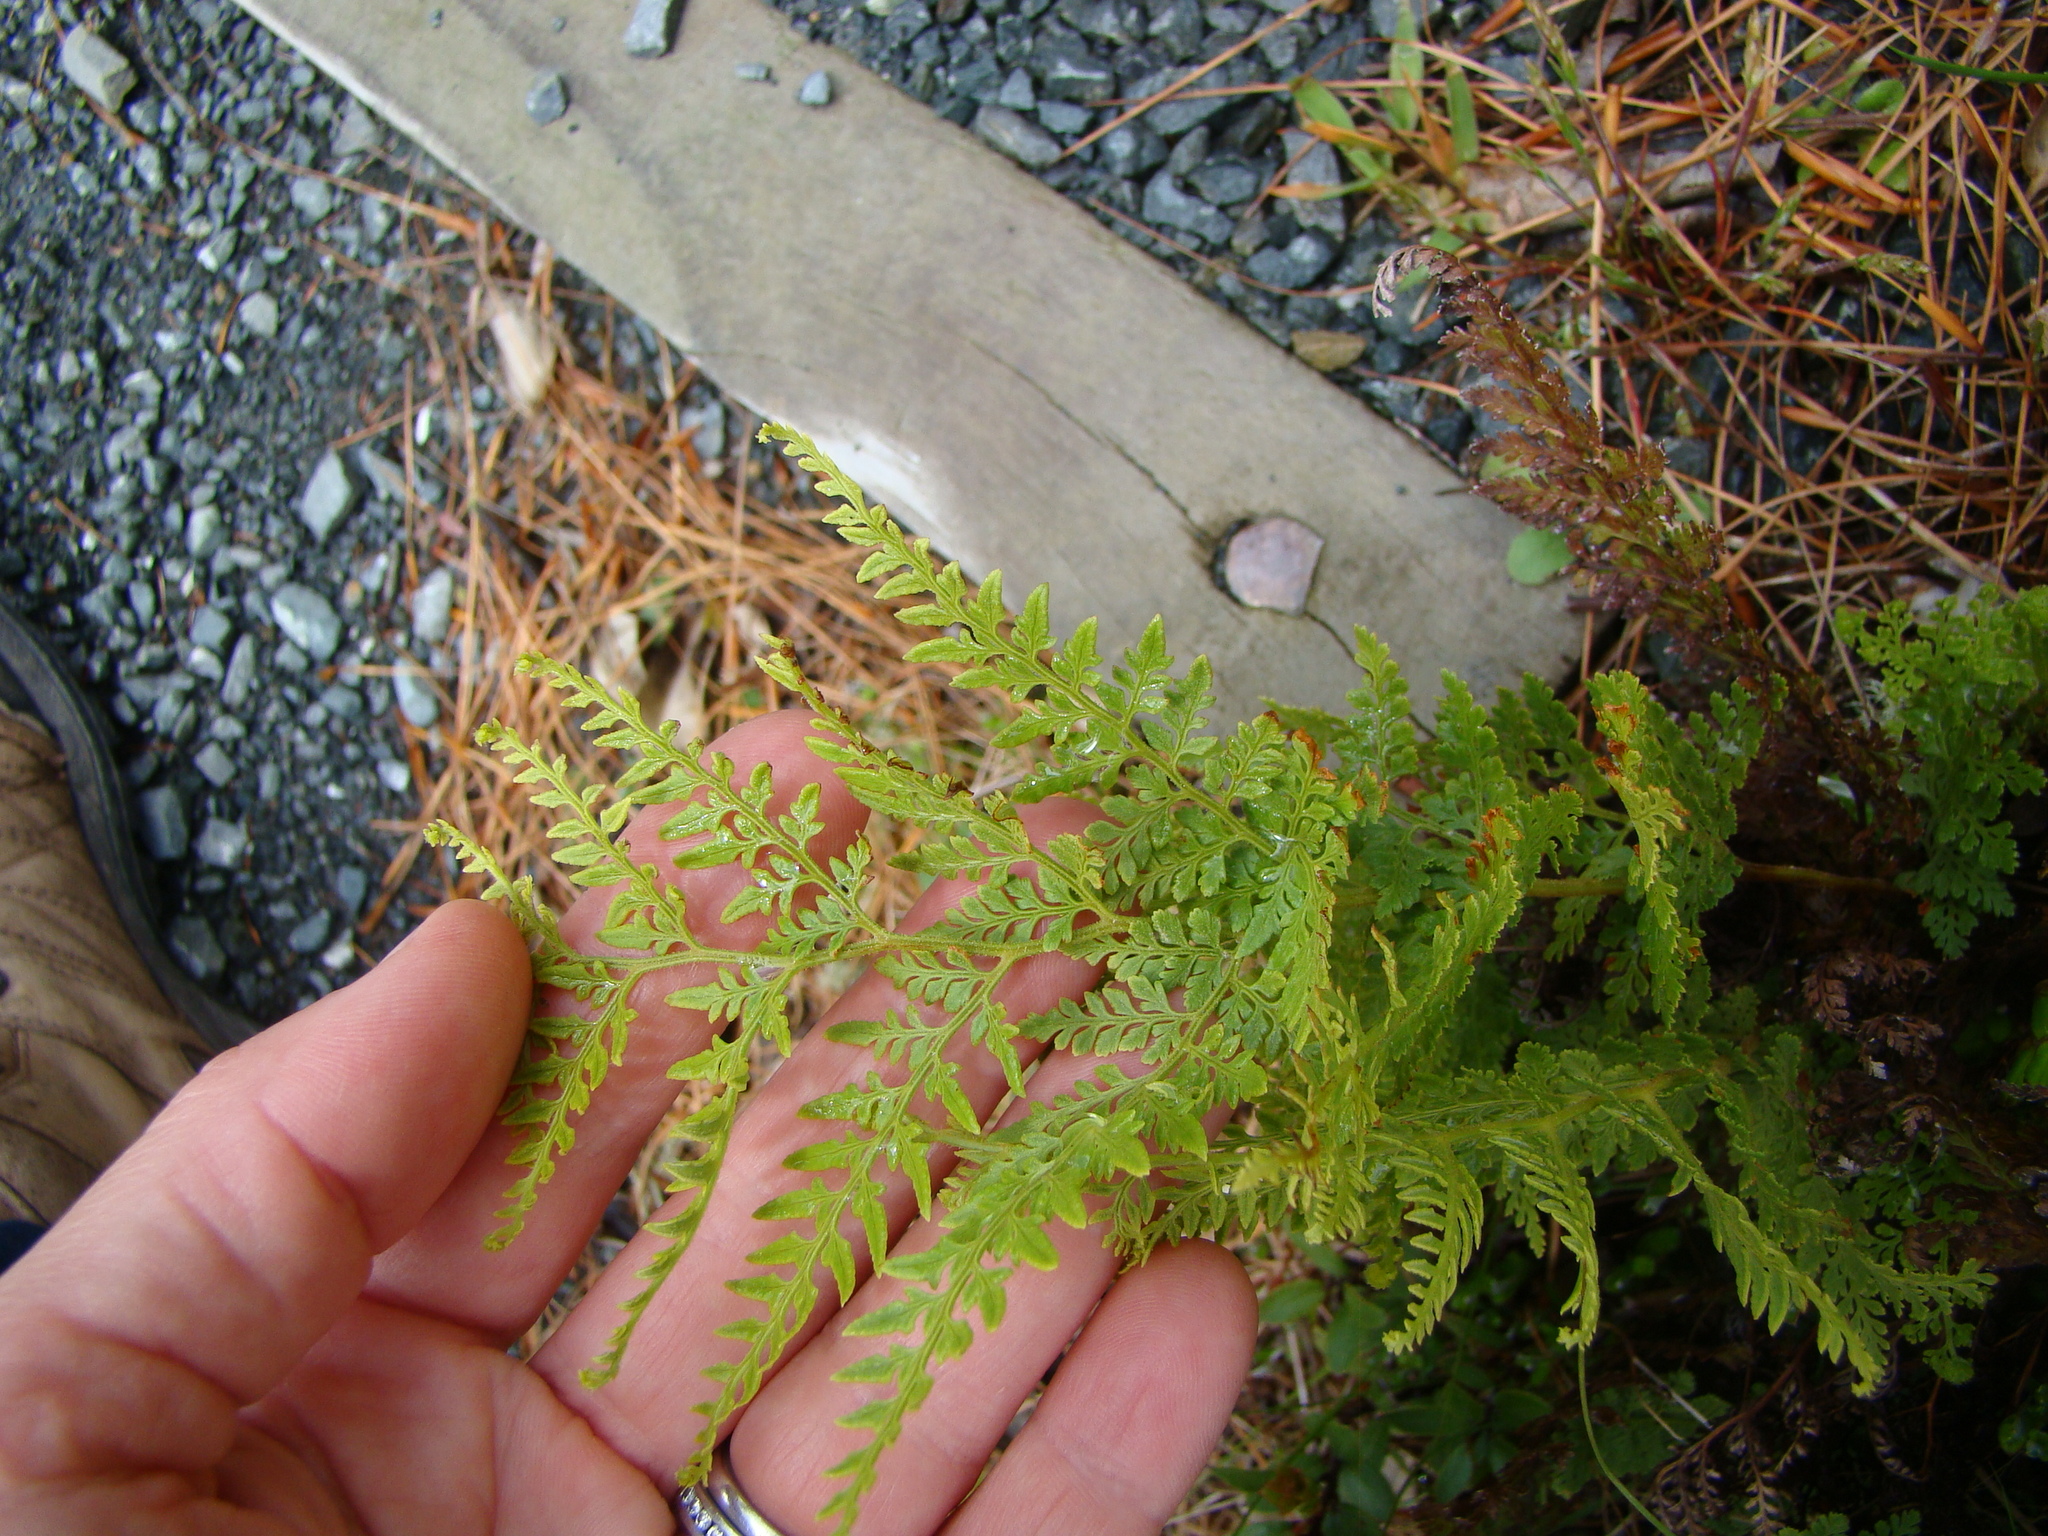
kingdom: Plantae
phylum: Tracheophyta
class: Polypodiopsida
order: Polypodiales
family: Dennstaedtiaceae
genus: Paesia
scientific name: Paesia scaberula
